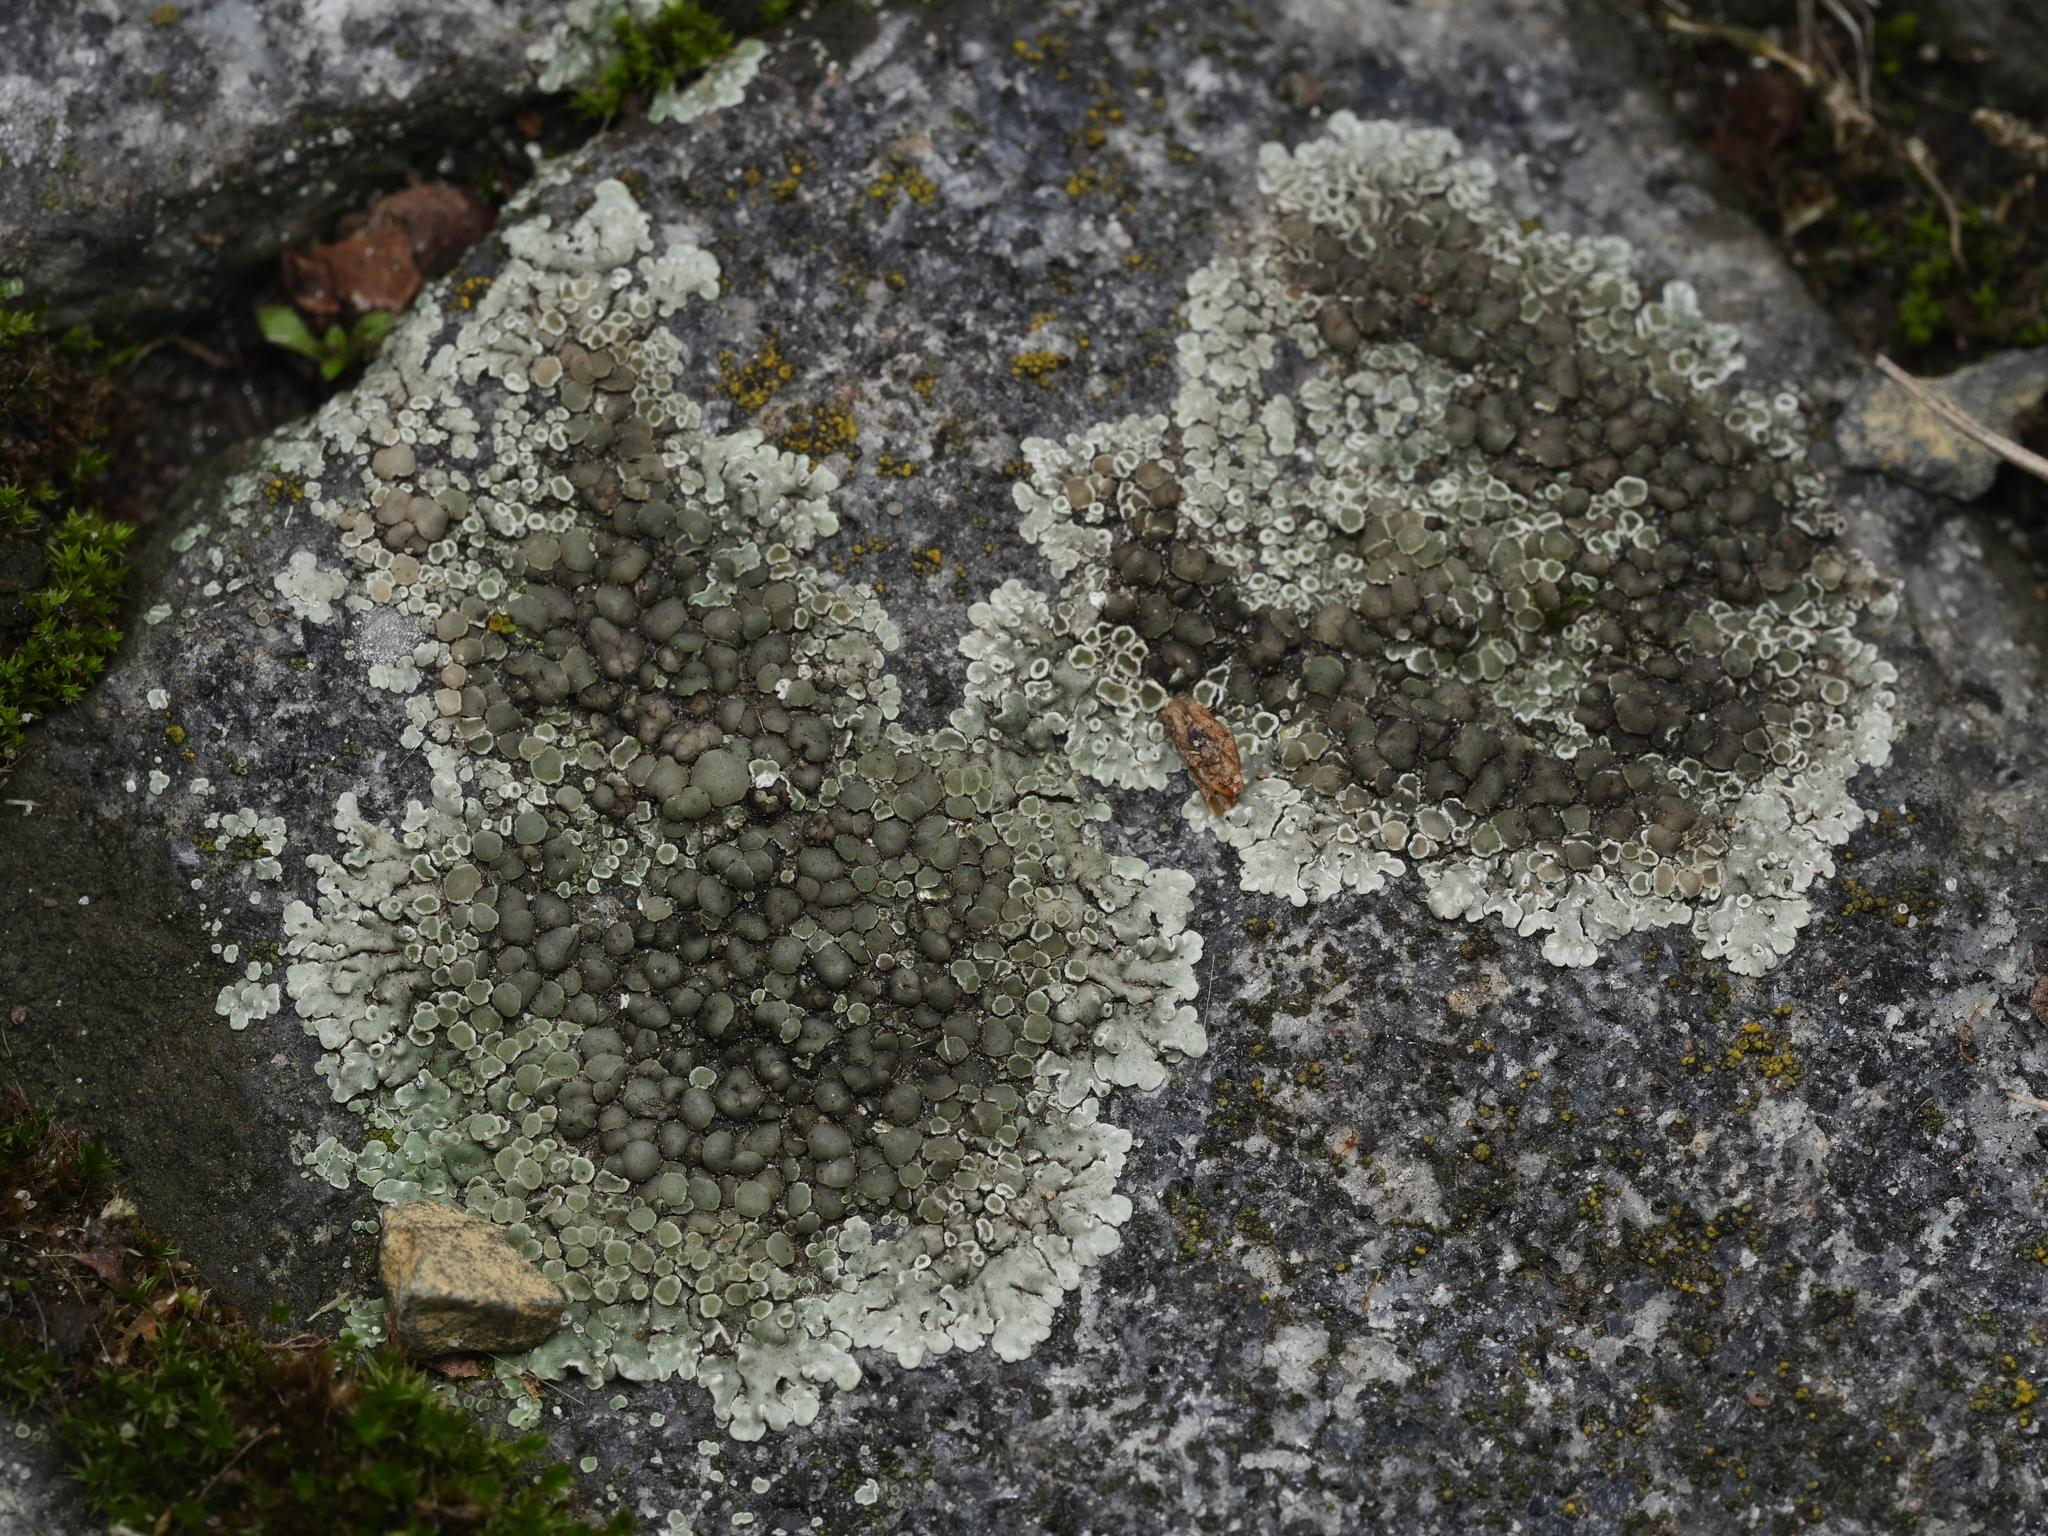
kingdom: Fungi
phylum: Ascomycota
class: Lecanoromycetes
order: Lecanorales
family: Lecanoraceae
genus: Protoparmeliopsis
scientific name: Protoparmeliopsis muralis
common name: Stonewall rim lichen
